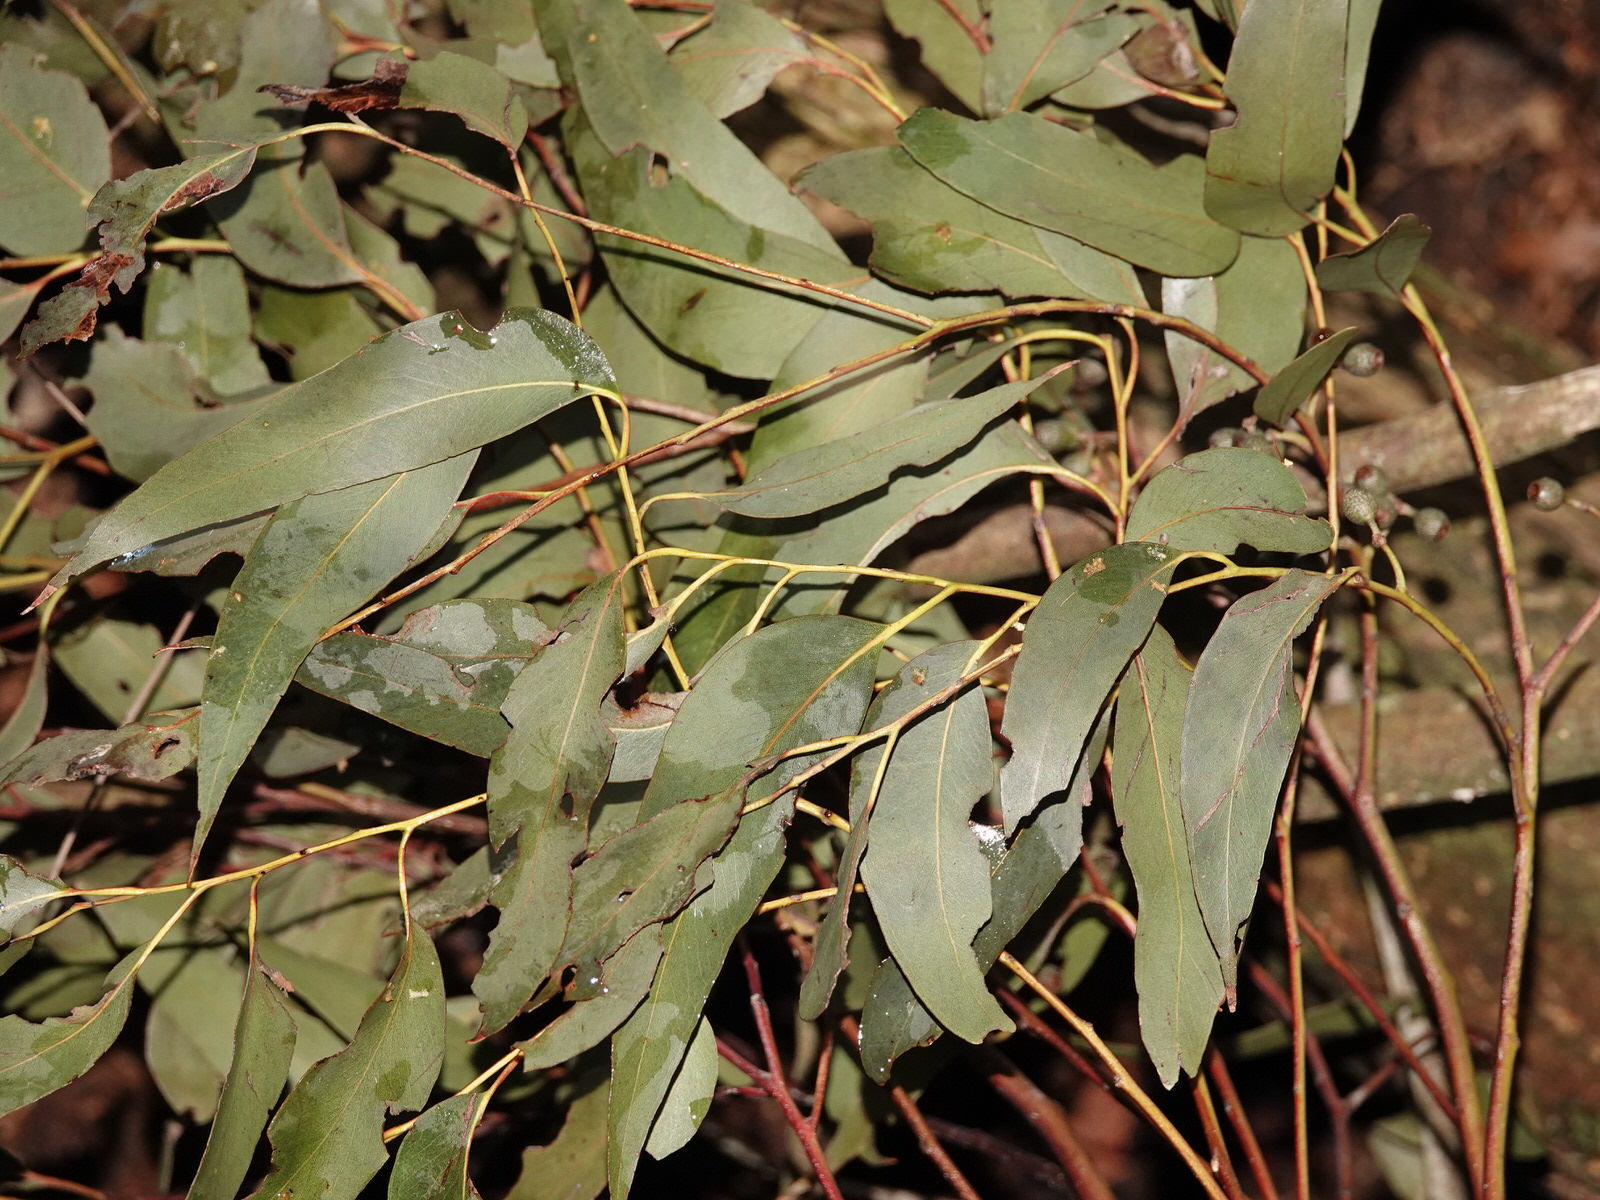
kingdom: Plantae
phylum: Tracheophyta
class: Magnoliopsida
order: Myrtales
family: Myrtaceae
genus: Eucalyptus
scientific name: Eucalyptus delegatensis
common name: Alpine-ash
